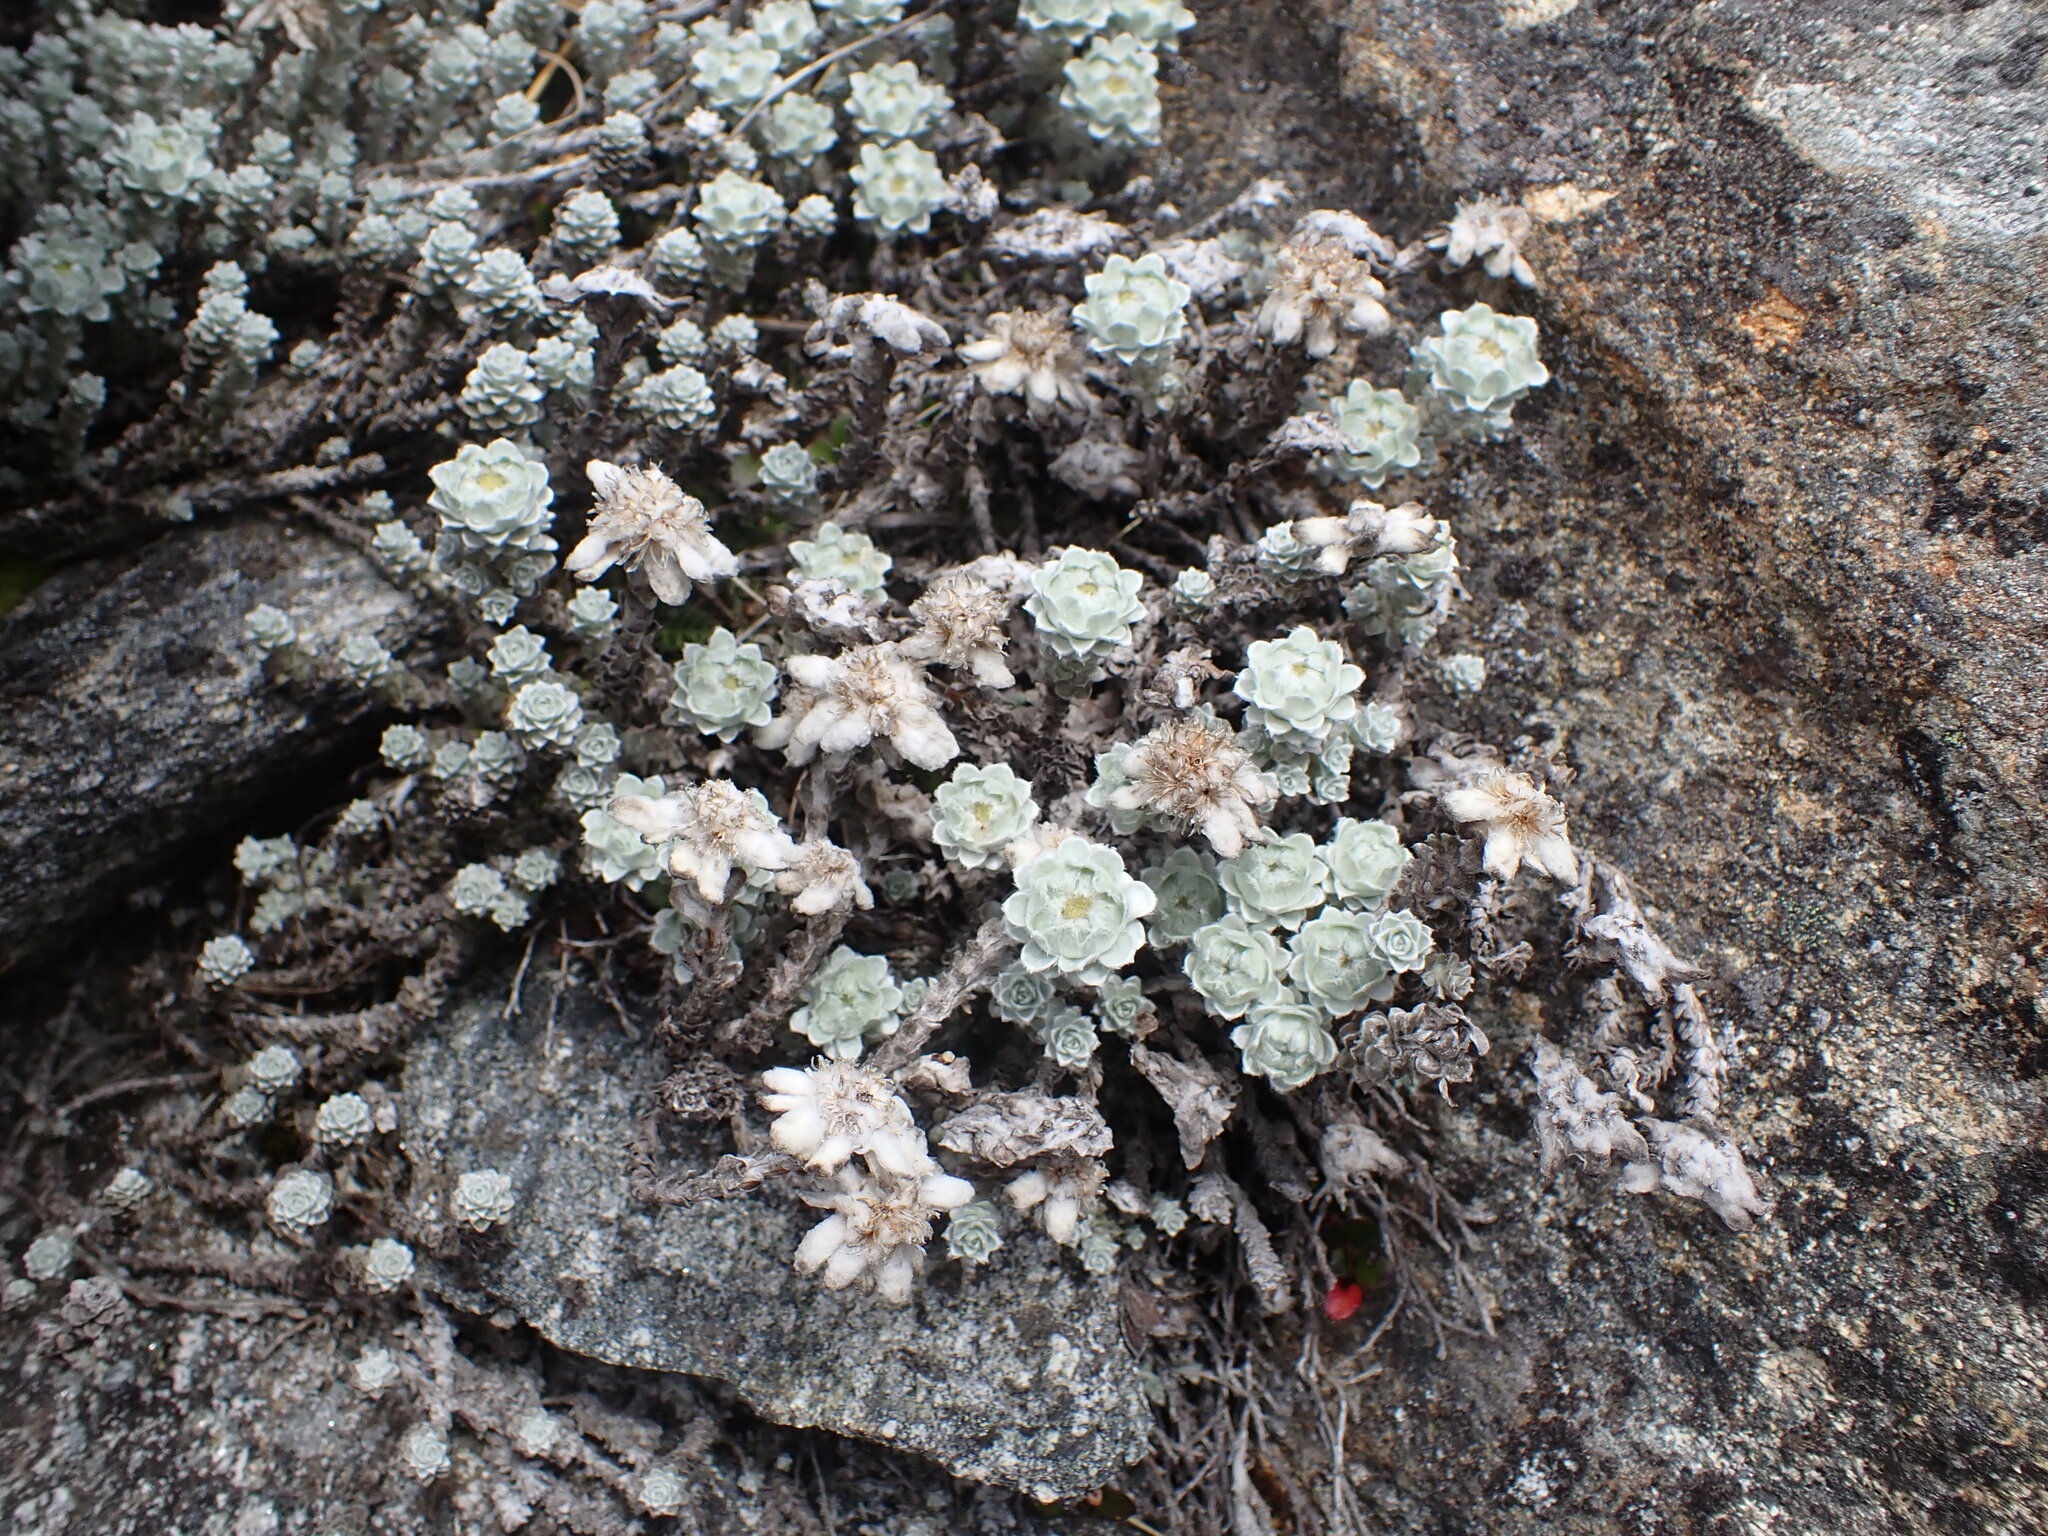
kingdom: Plantae
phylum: Tracheophyta
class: Magnoliopsida
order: Asterales
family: Asteraceae
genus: Leucogenes
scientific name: Leucogenes grandiceps
